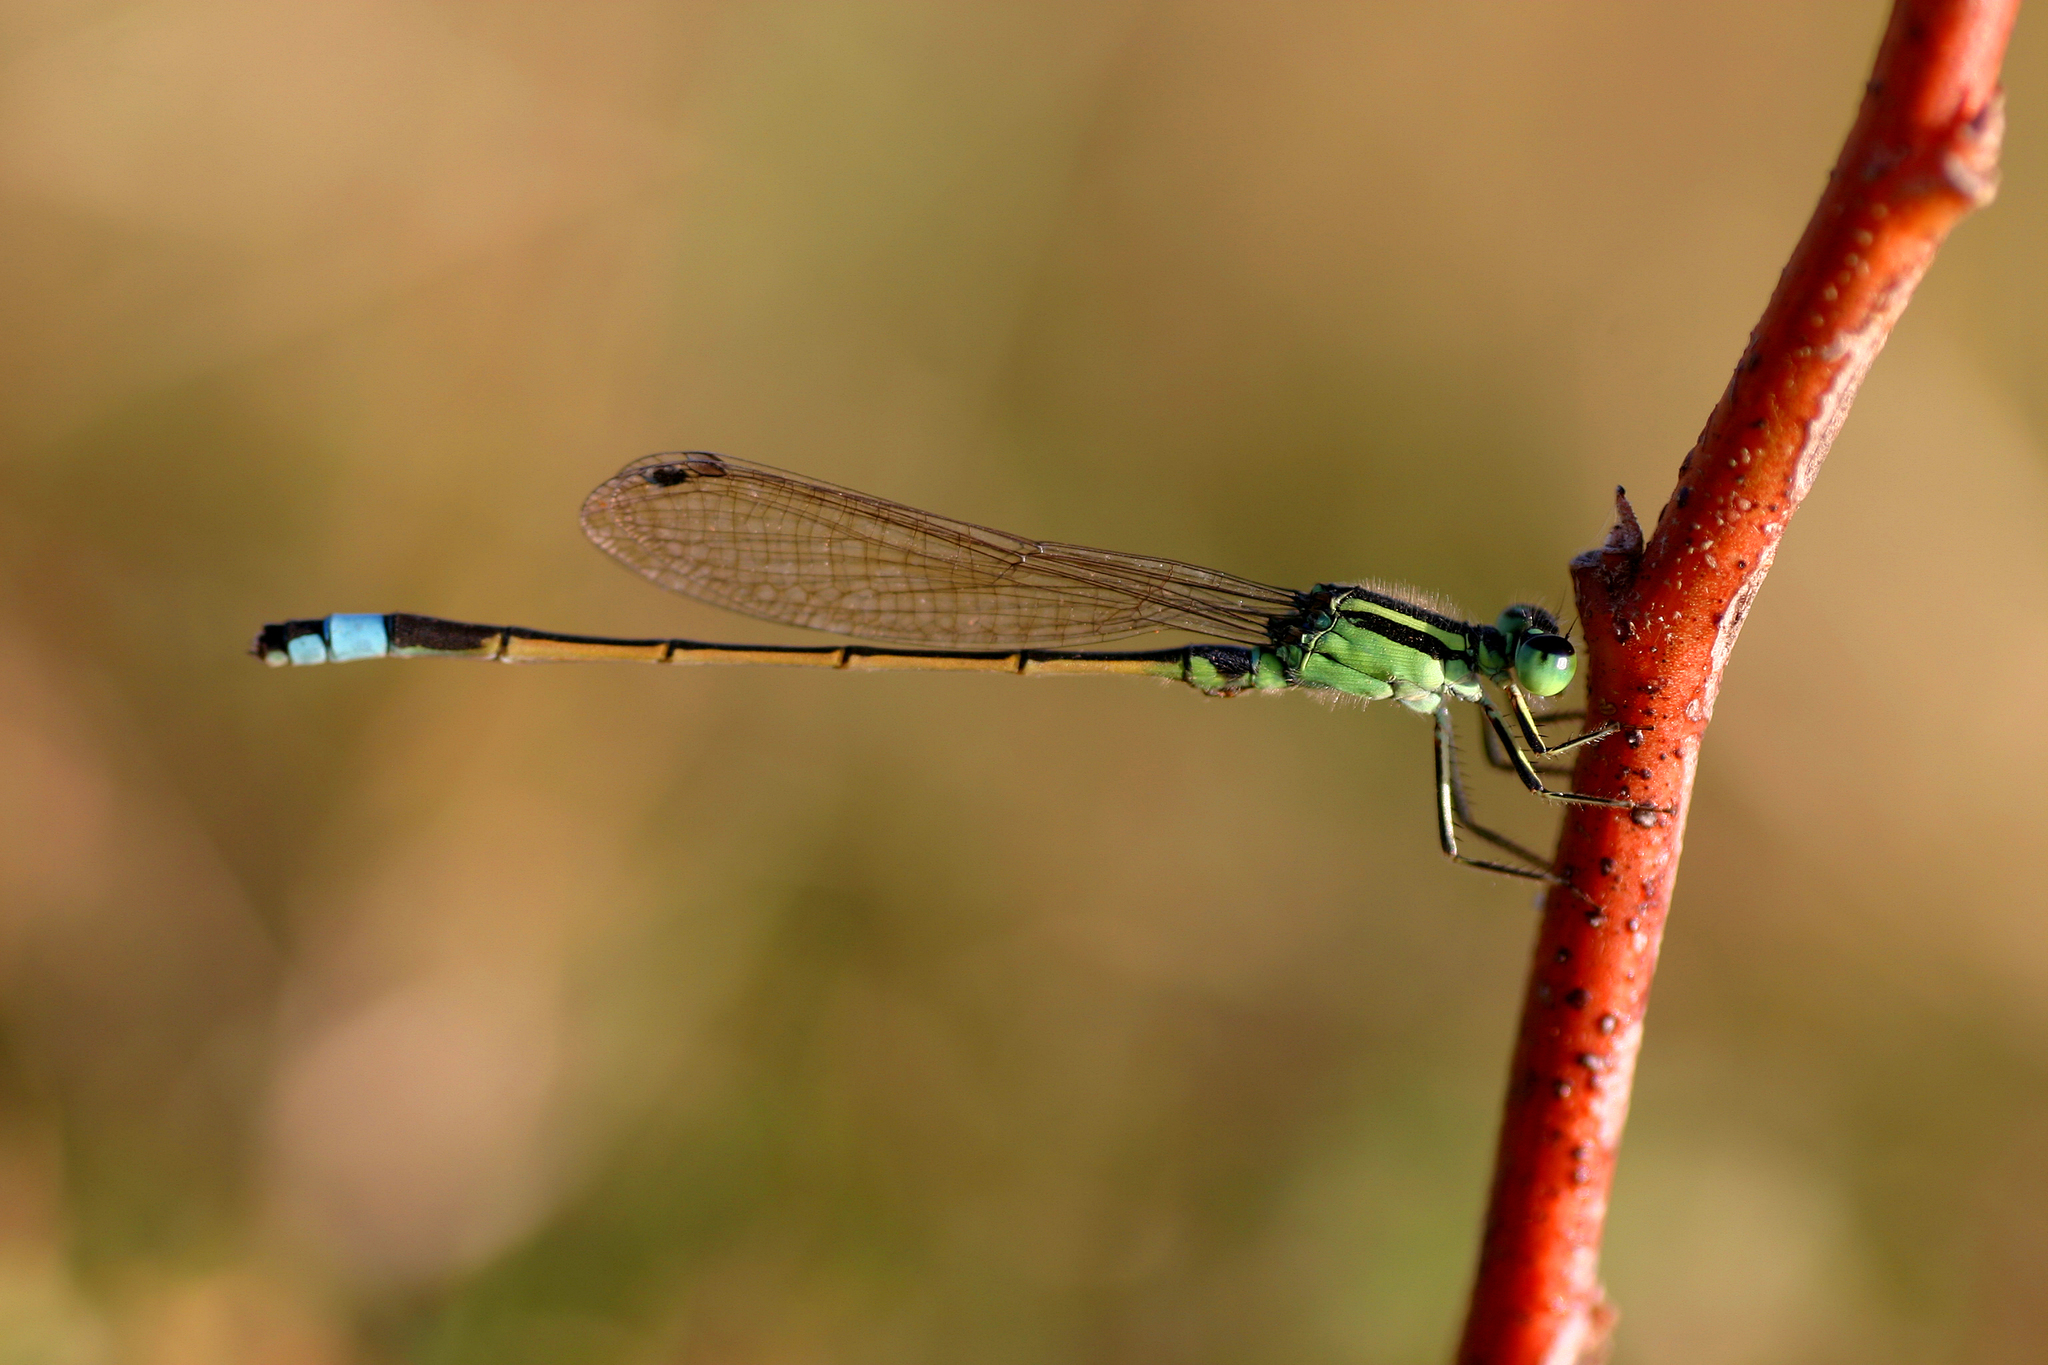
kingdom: Animalia
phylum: Arthropoda
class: Insecta
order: Odonata
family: Coenagrionidae
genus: Ischnura
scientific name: Ischnura senegalensis
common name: Tropical bluetail
